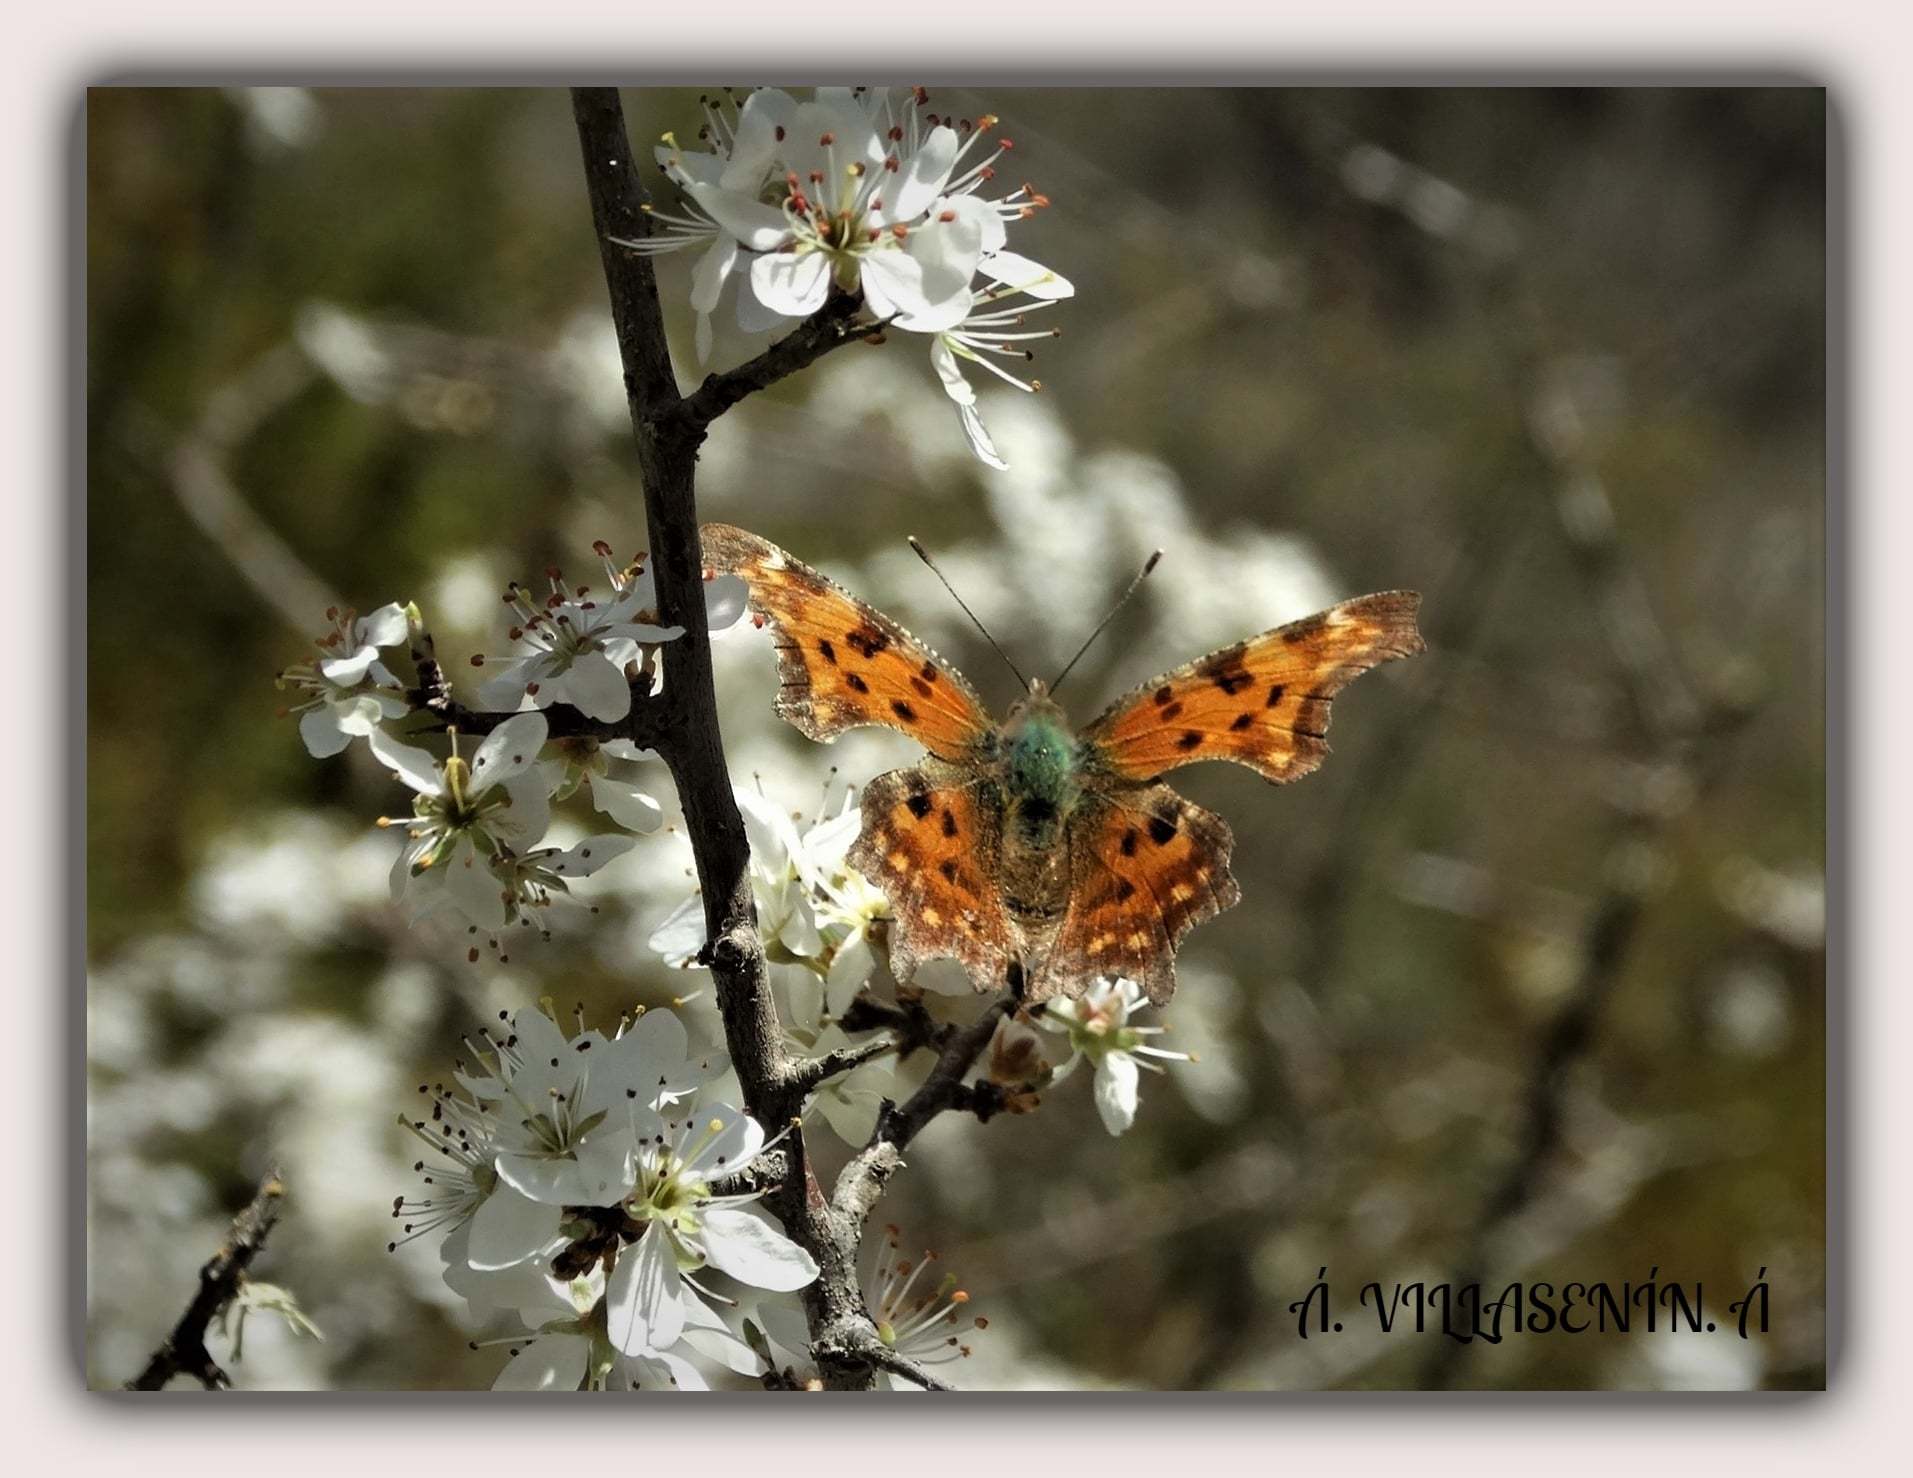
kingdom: Animalia
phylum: Arthropoda
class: Insecta
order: Lepidoptera
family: Nymphalidae
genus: Polygonia
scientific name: Polygonia c-album
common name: Comma
